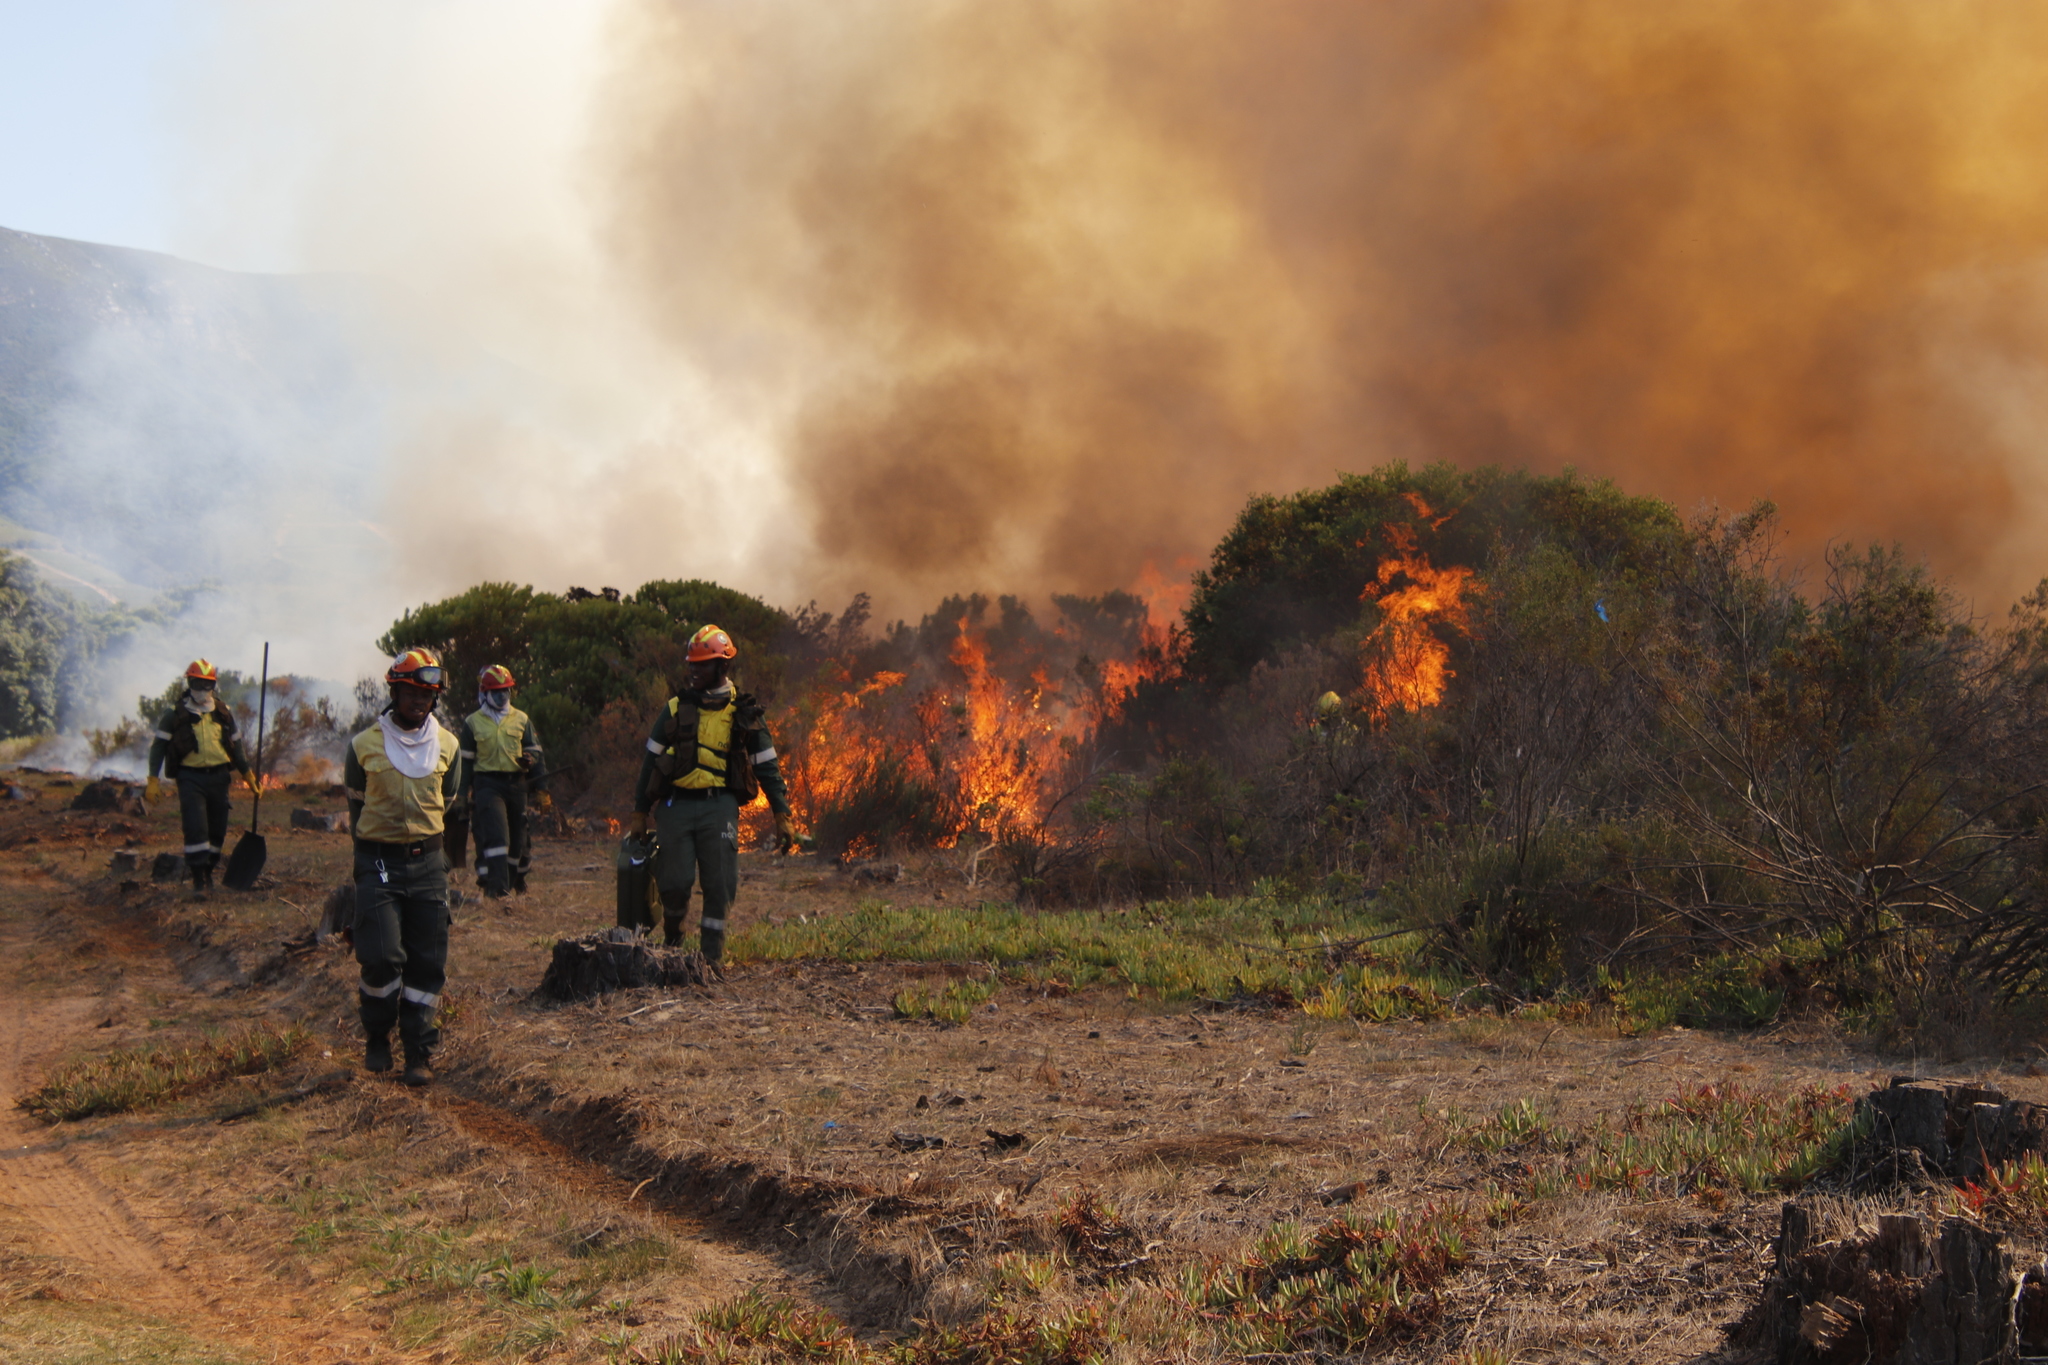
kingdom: Plantae
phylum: Tracheophyta
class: Magnoliopsida
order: Asterales
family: Asteraceae
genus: Osteospermum
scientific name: Osteospermum moniliferum
